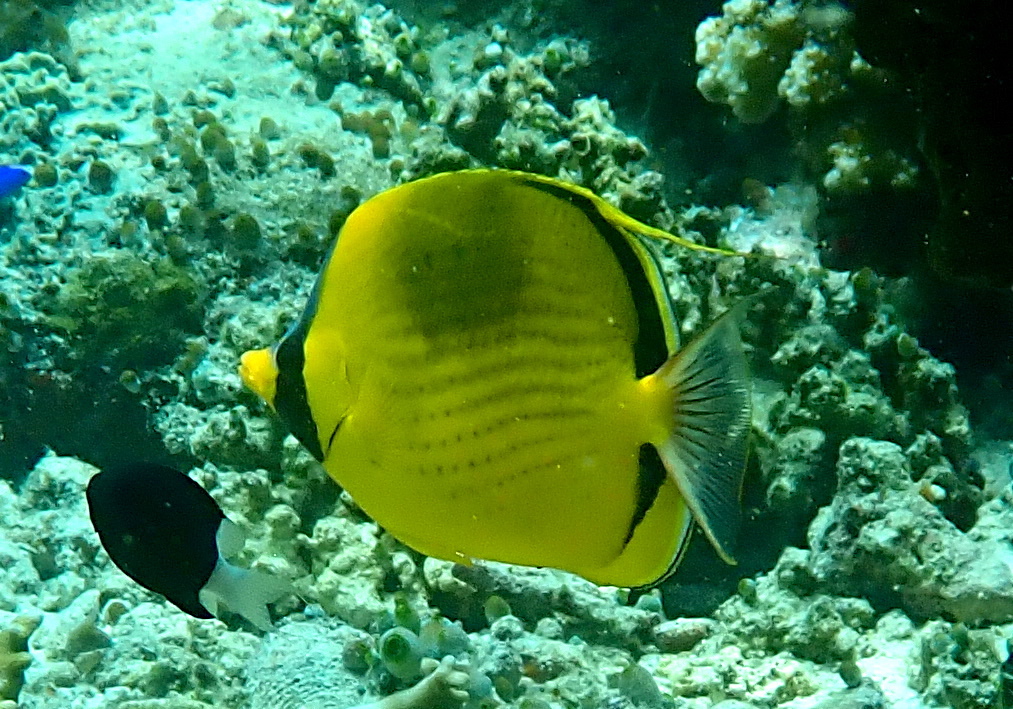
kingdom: Animalia
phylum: Chordata
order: Perciformes
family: Chaetodontidae
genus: Chaetodon
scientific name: Chaetodon semeion
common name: Dotted butterflyfish
